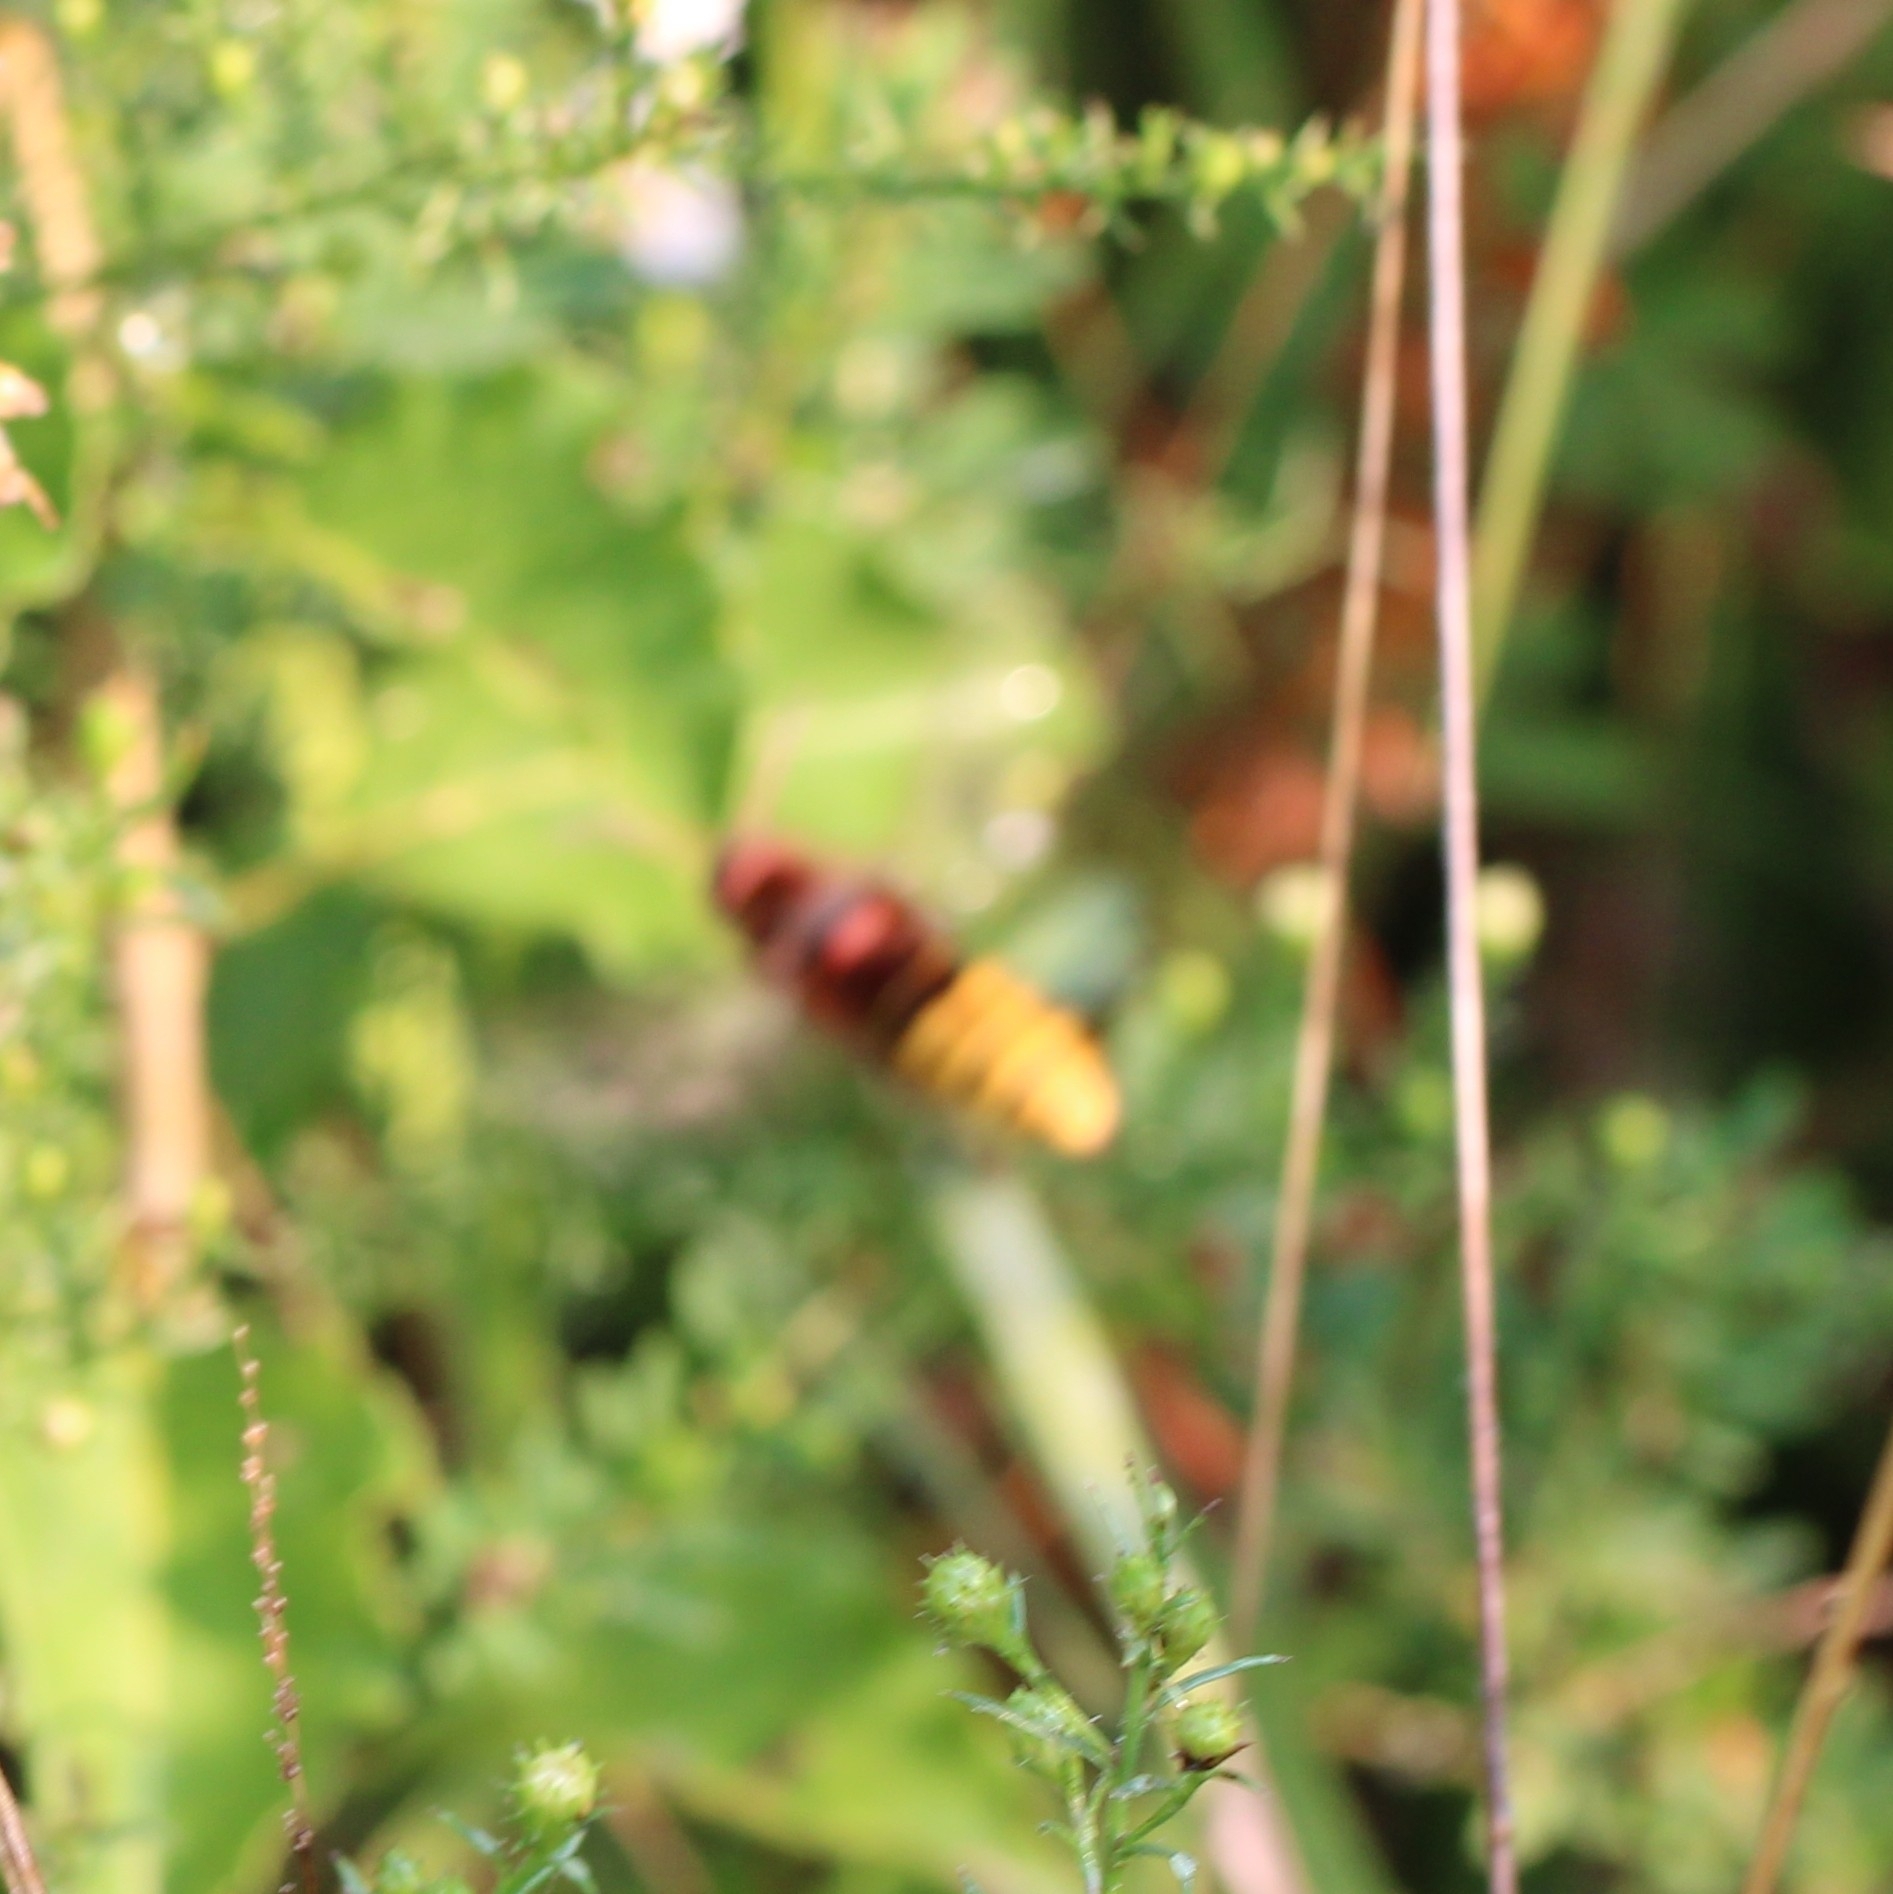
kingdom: Animalia
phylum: Arthropoda
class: Insecta
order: Hymenoptera
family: Vespidae
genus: Vespa
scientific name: Vespa crabro
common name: Hornet
